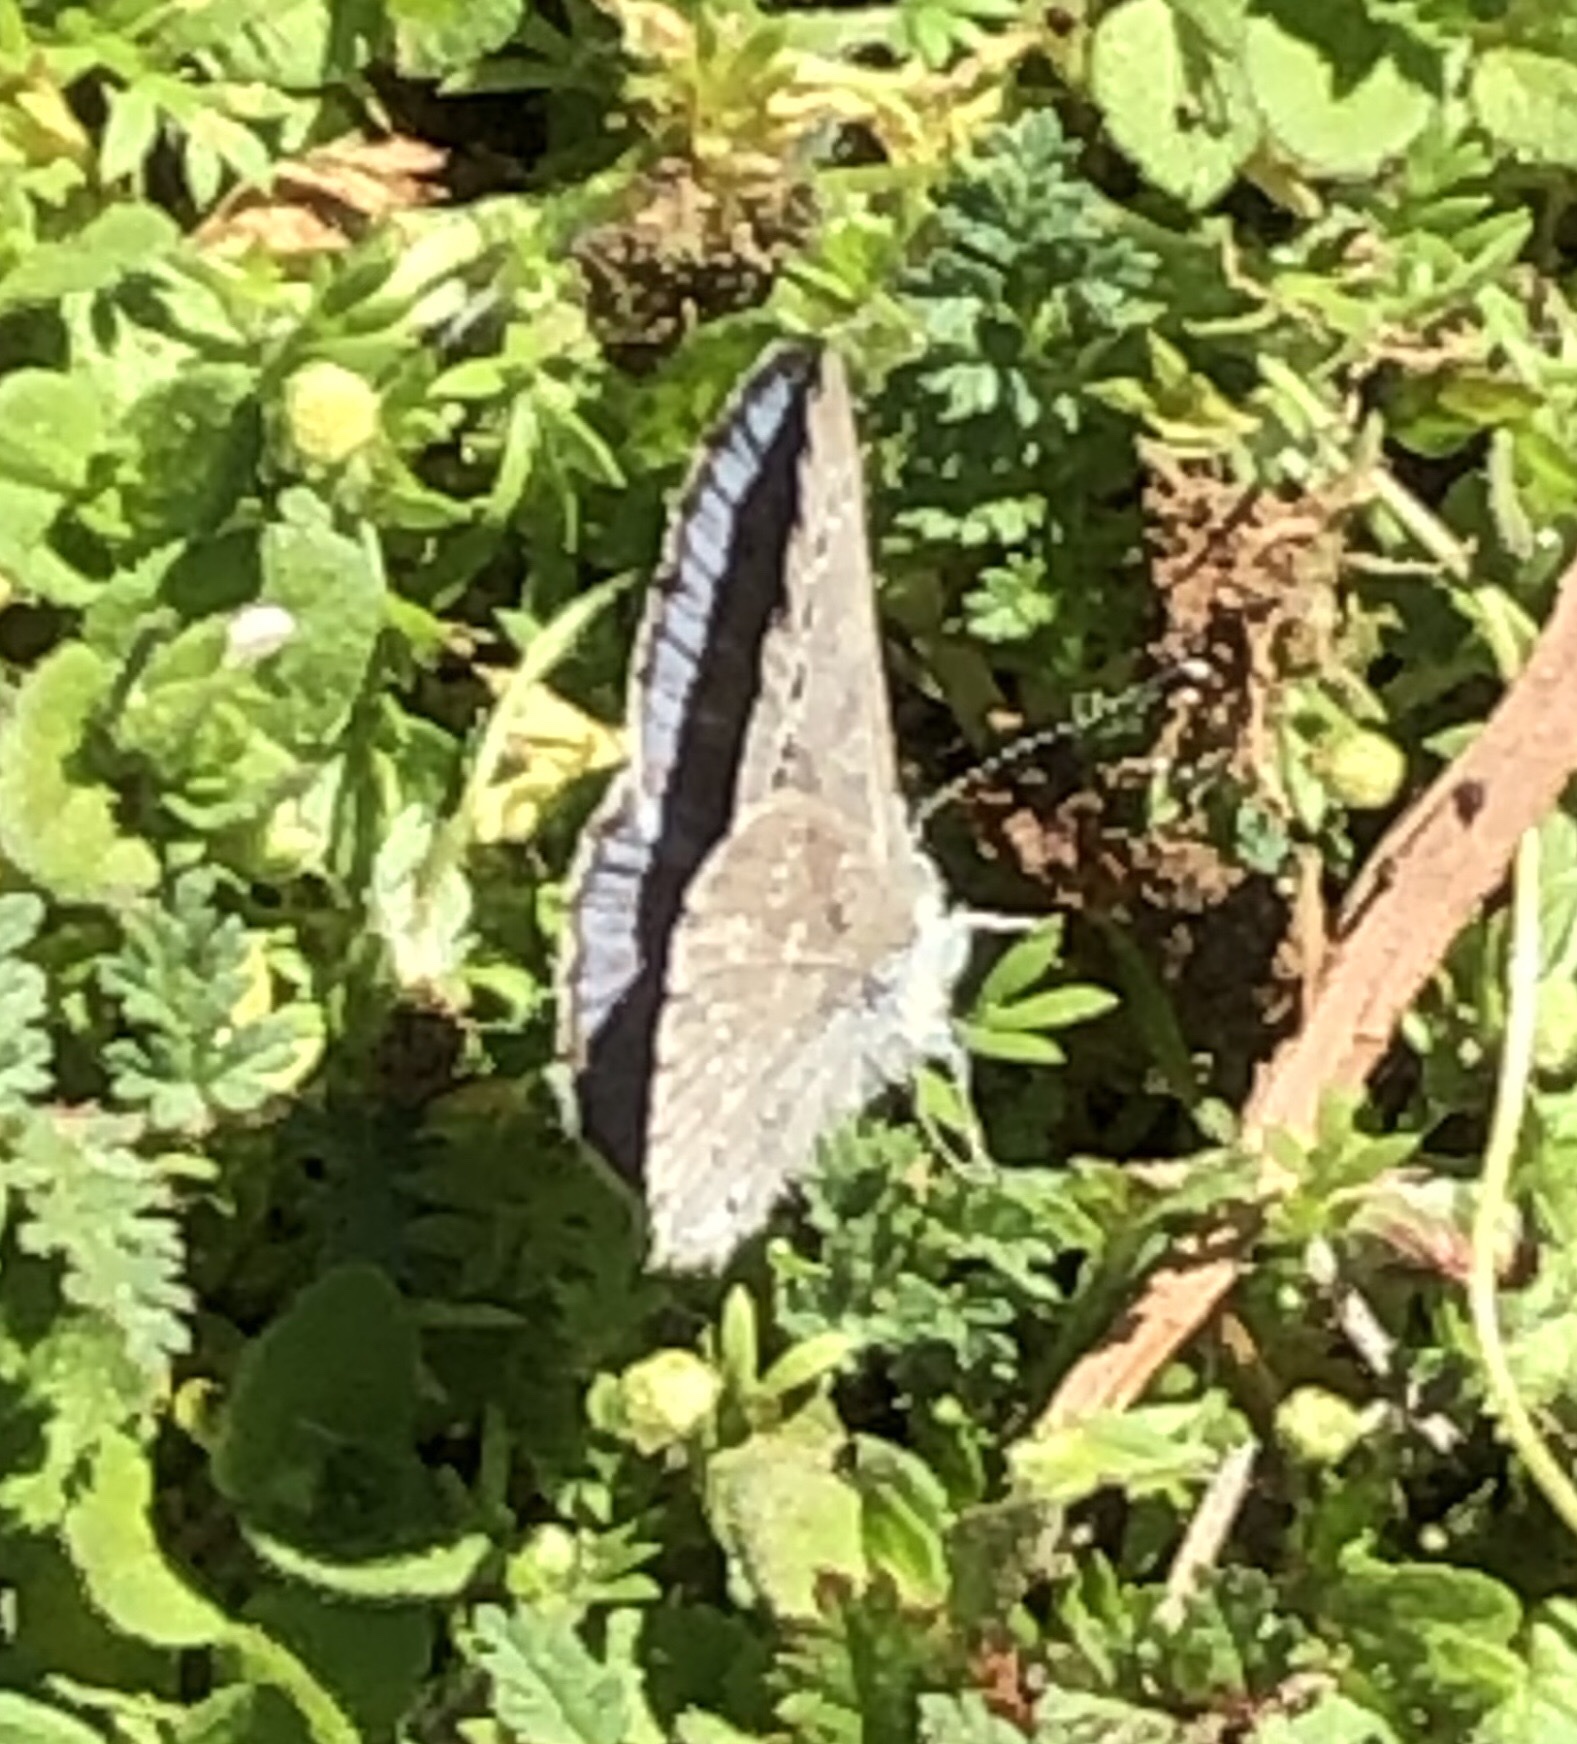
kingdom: Animalia
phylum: Arthropoda
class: Insecta
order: Lepidoptera
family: Lycaenidae
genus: Glaucopsyche
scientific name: Glaucopsyche lygdamus
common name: Silvery blue
